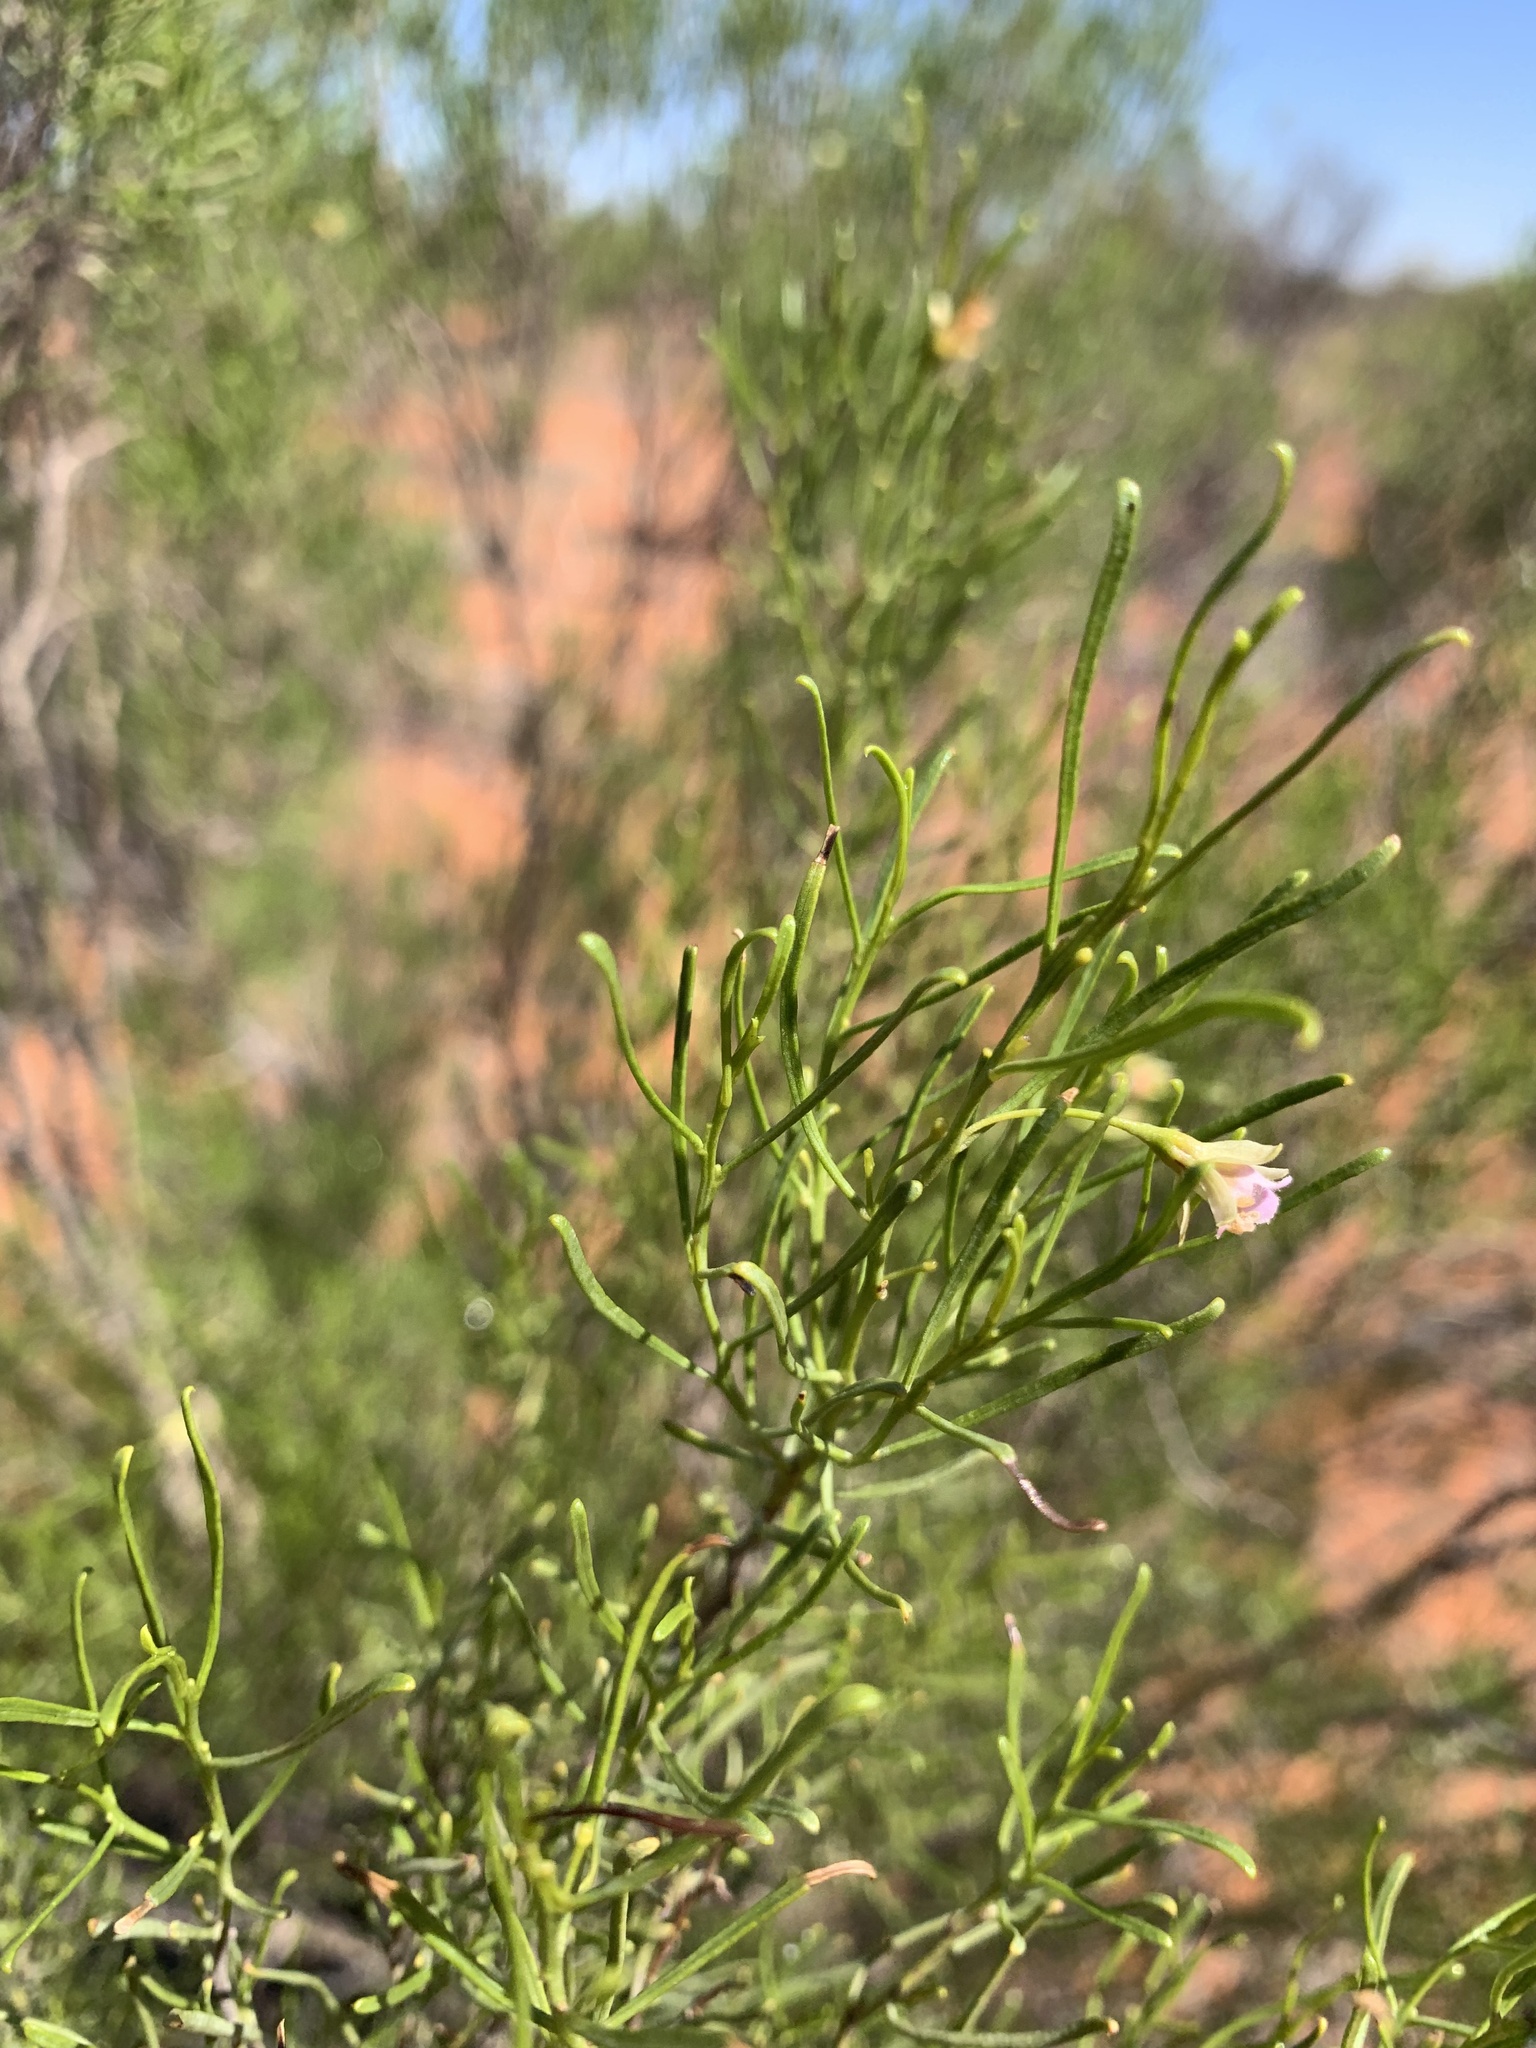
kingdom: Plantae
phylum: Tracheophyta
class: Magnoliopsida
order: Lamiales
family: Scrophulariaceae
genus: Eremophila
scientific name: Eremophila sturtii
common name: Narrow-leaf emubush
